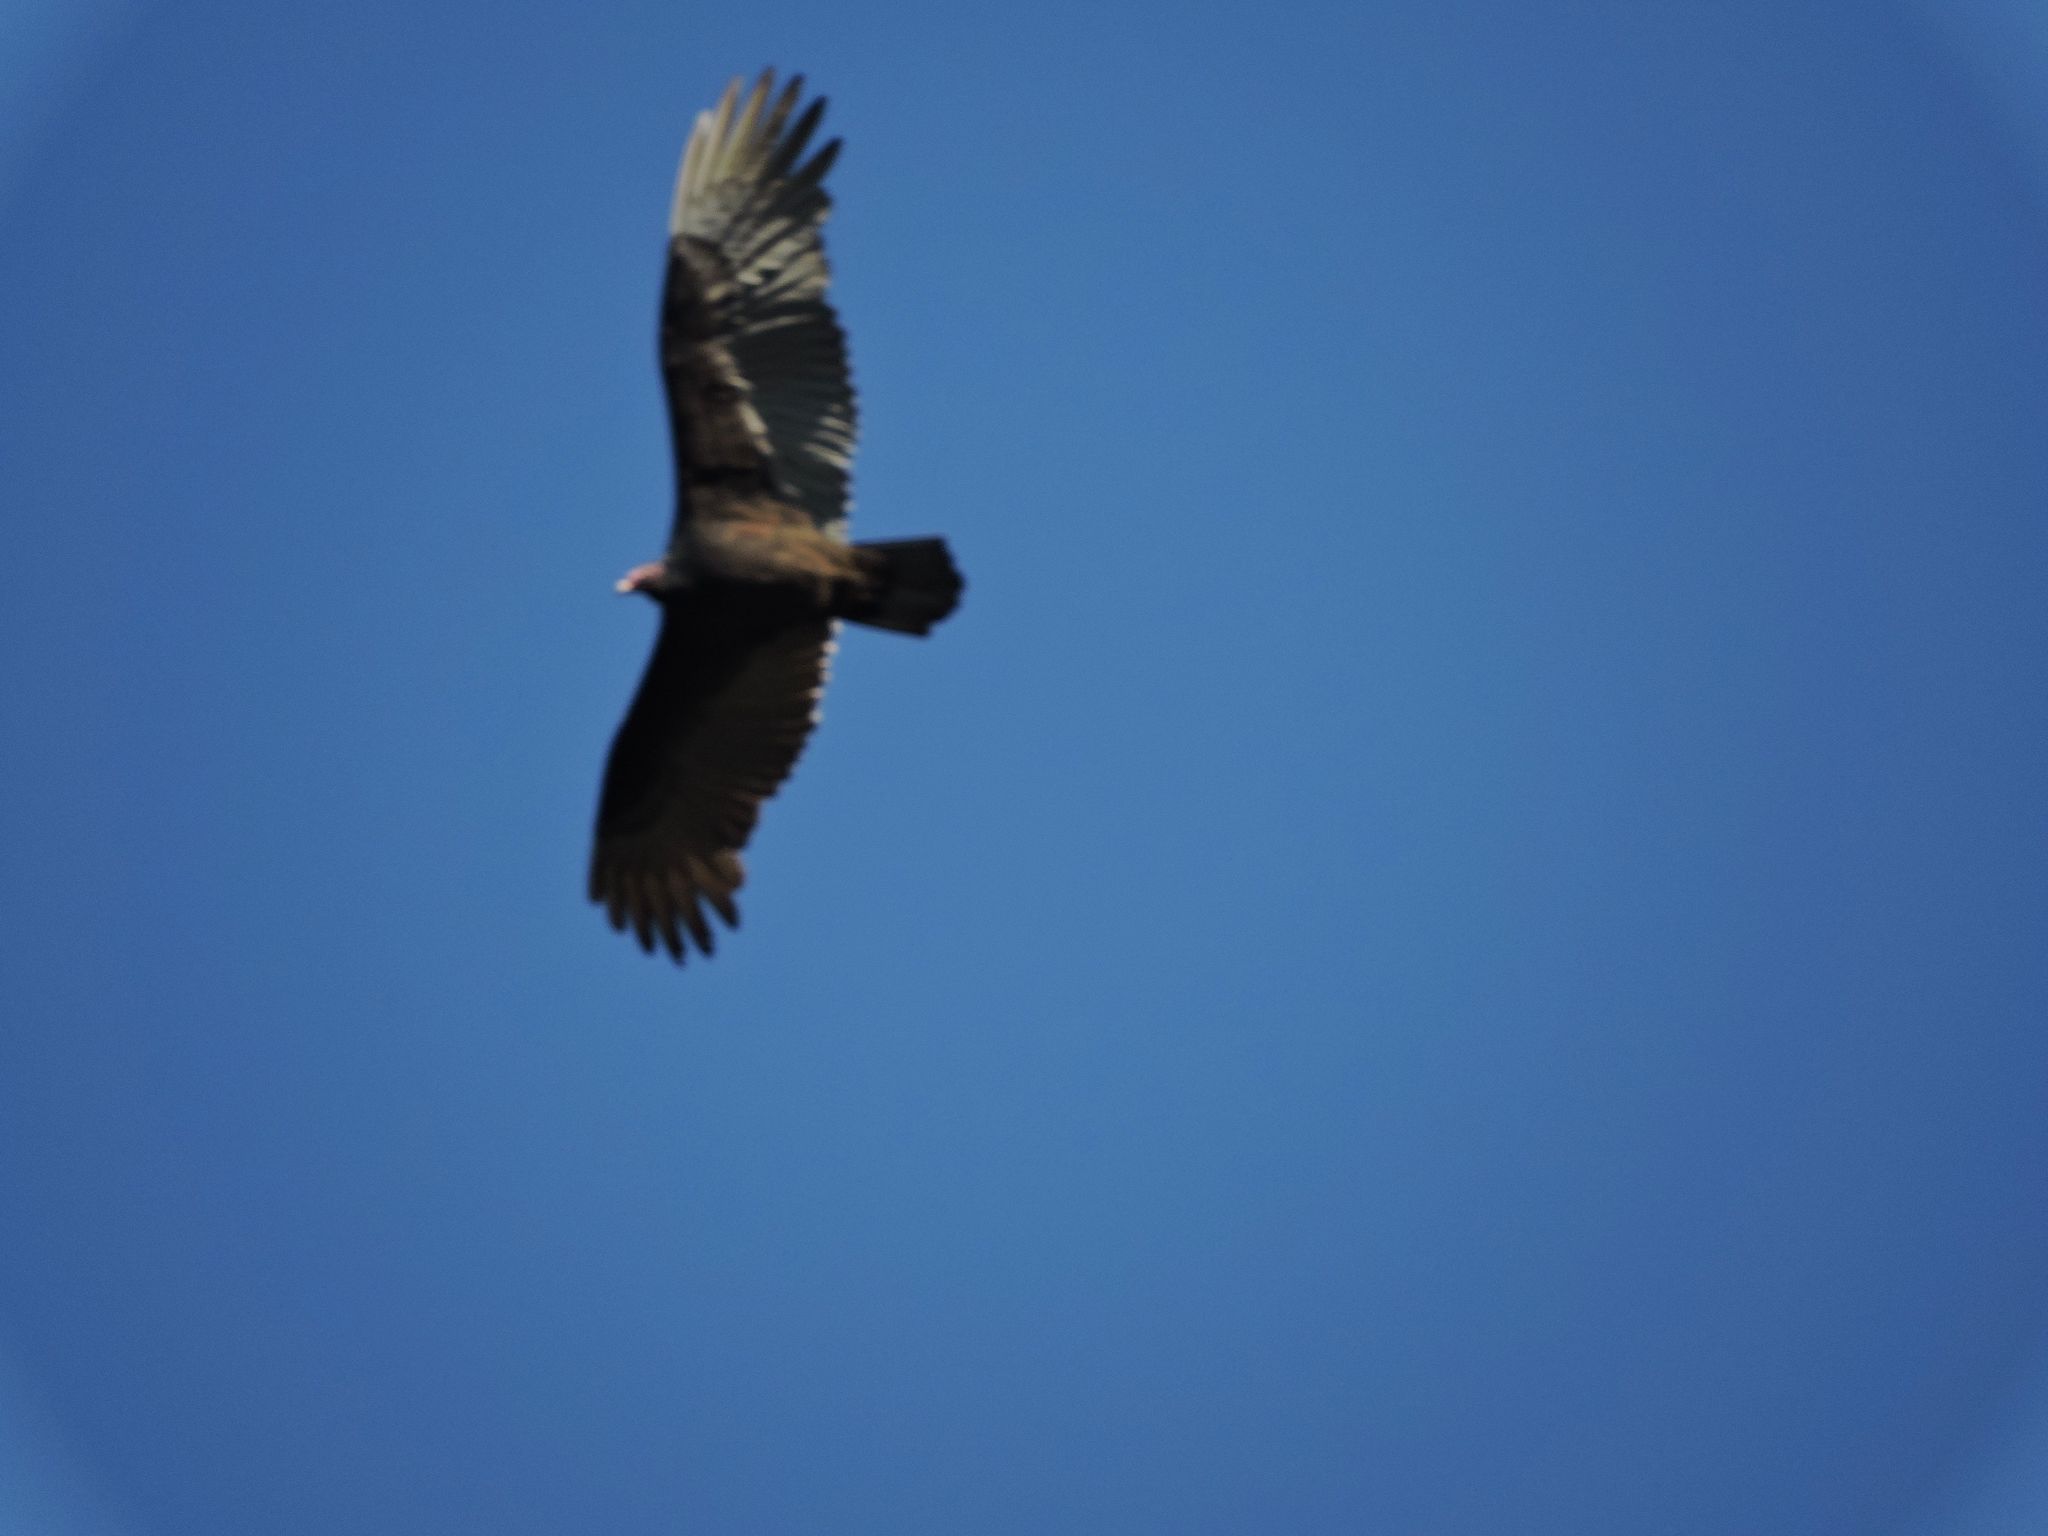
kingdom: Animalia
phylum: Chordata
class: Aves
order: Accipitriformes
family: Cathartidae
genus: Cathartes
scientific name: Cathartes aura
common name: Turkey vulture
